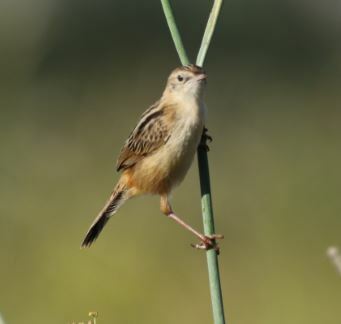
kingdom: Animalia
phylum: Chordata
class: Aves
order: Passeriformes
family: Cisticolidae
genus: Cisticola
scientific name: Cisticola juncidis
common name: Zitting cisticola
